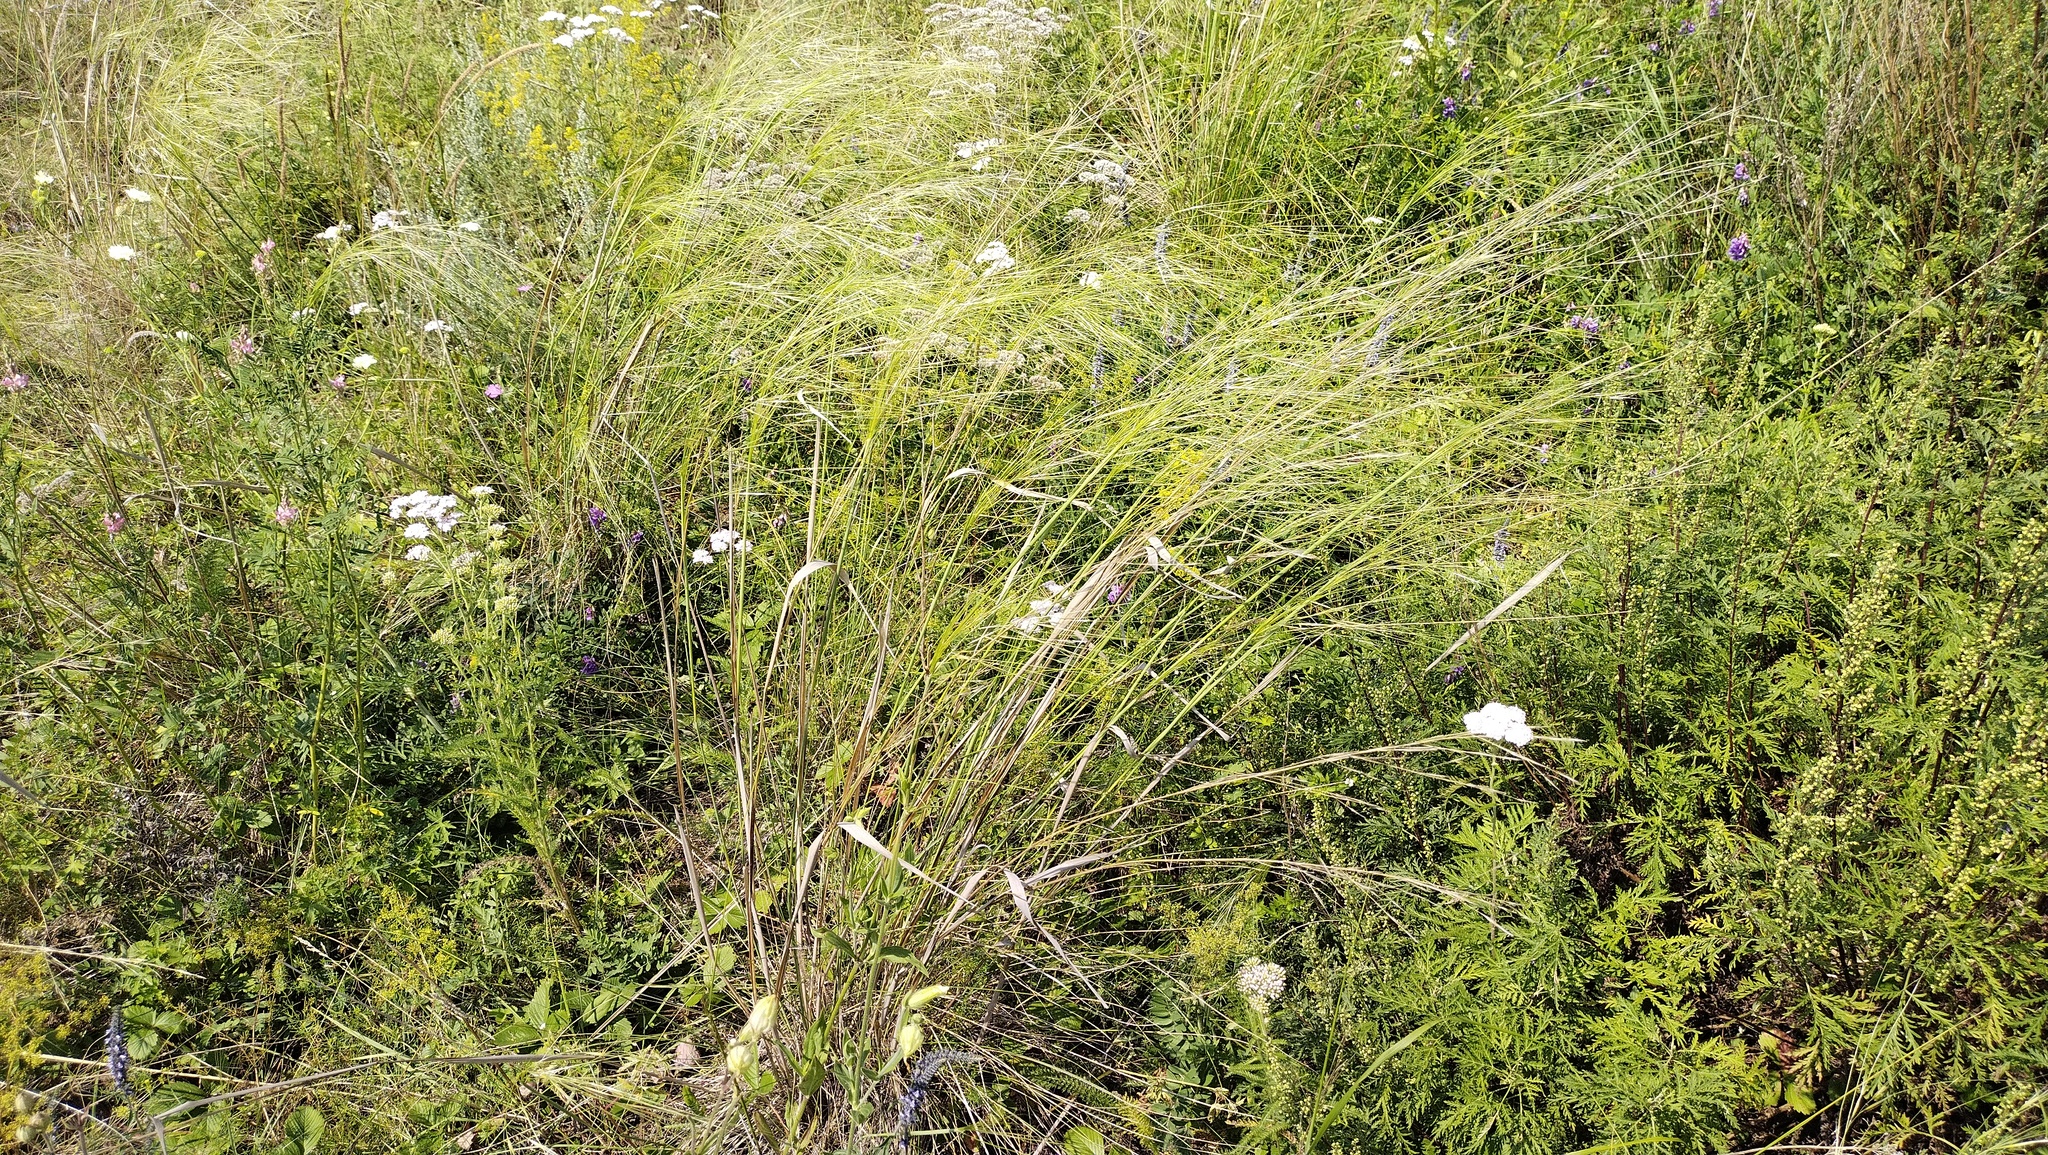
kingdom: Plantae
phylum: Tracheophyta
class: Liliopsida
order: Poales
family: Poaceae
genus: Stipa
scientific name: Stipa capillata
